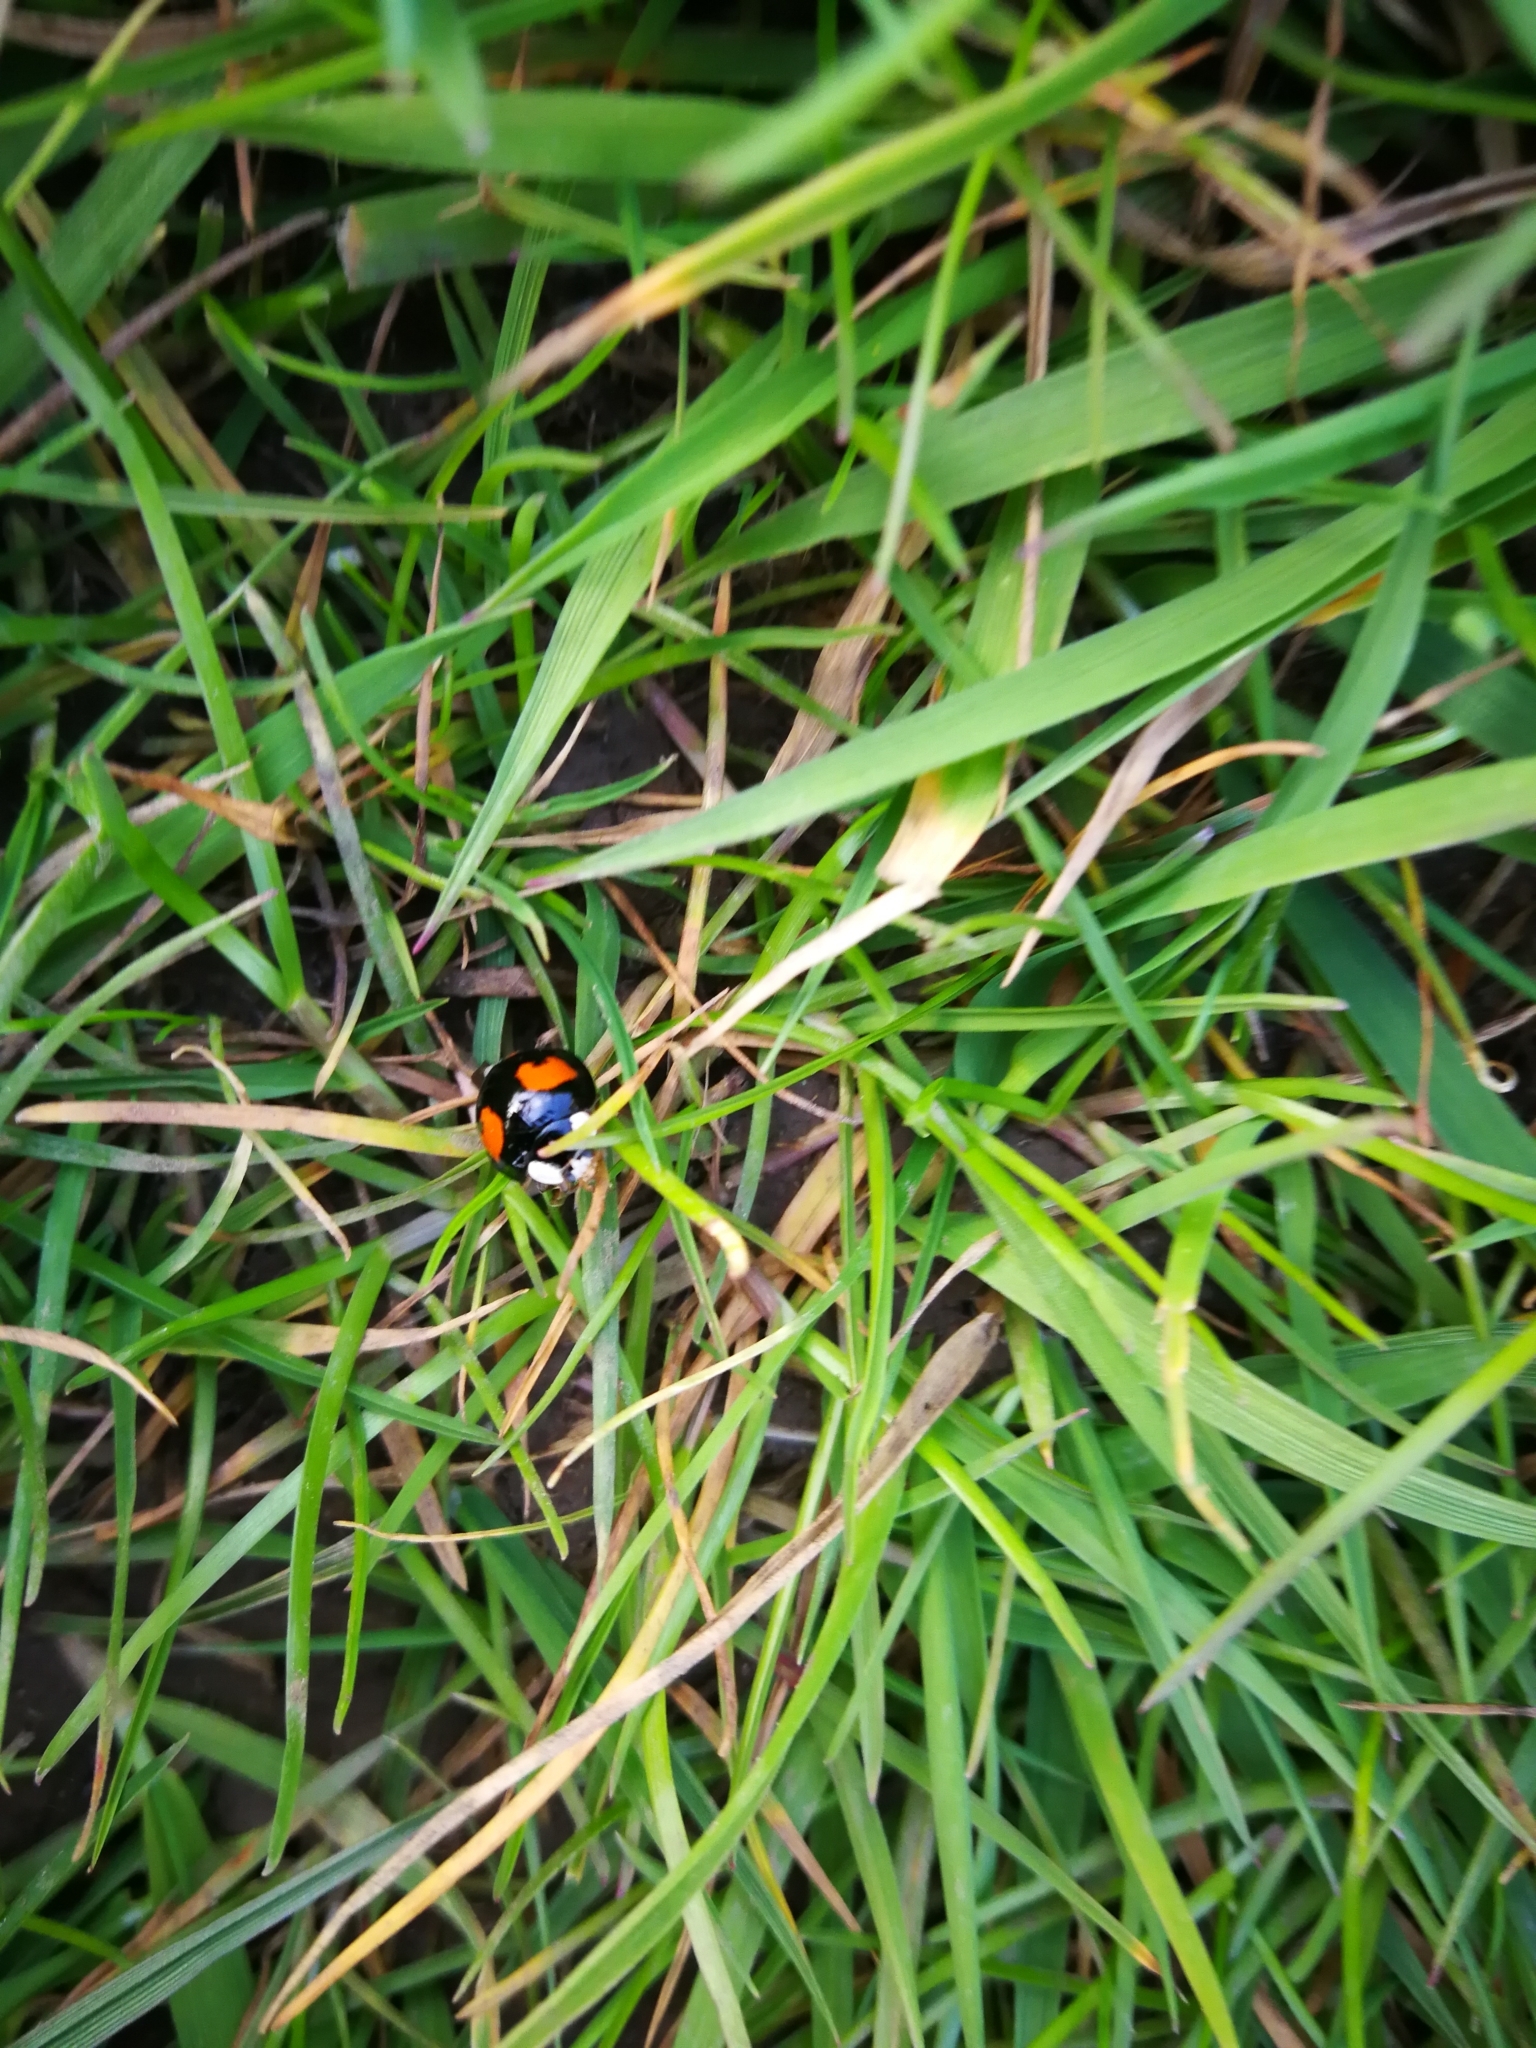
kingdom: Animalia
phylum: Arthropoda
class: Insecta
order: Coleoptera
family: Coccinellidae
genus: Harmonia
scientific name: Harmonia axyridis
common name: Harlequin ladybird
